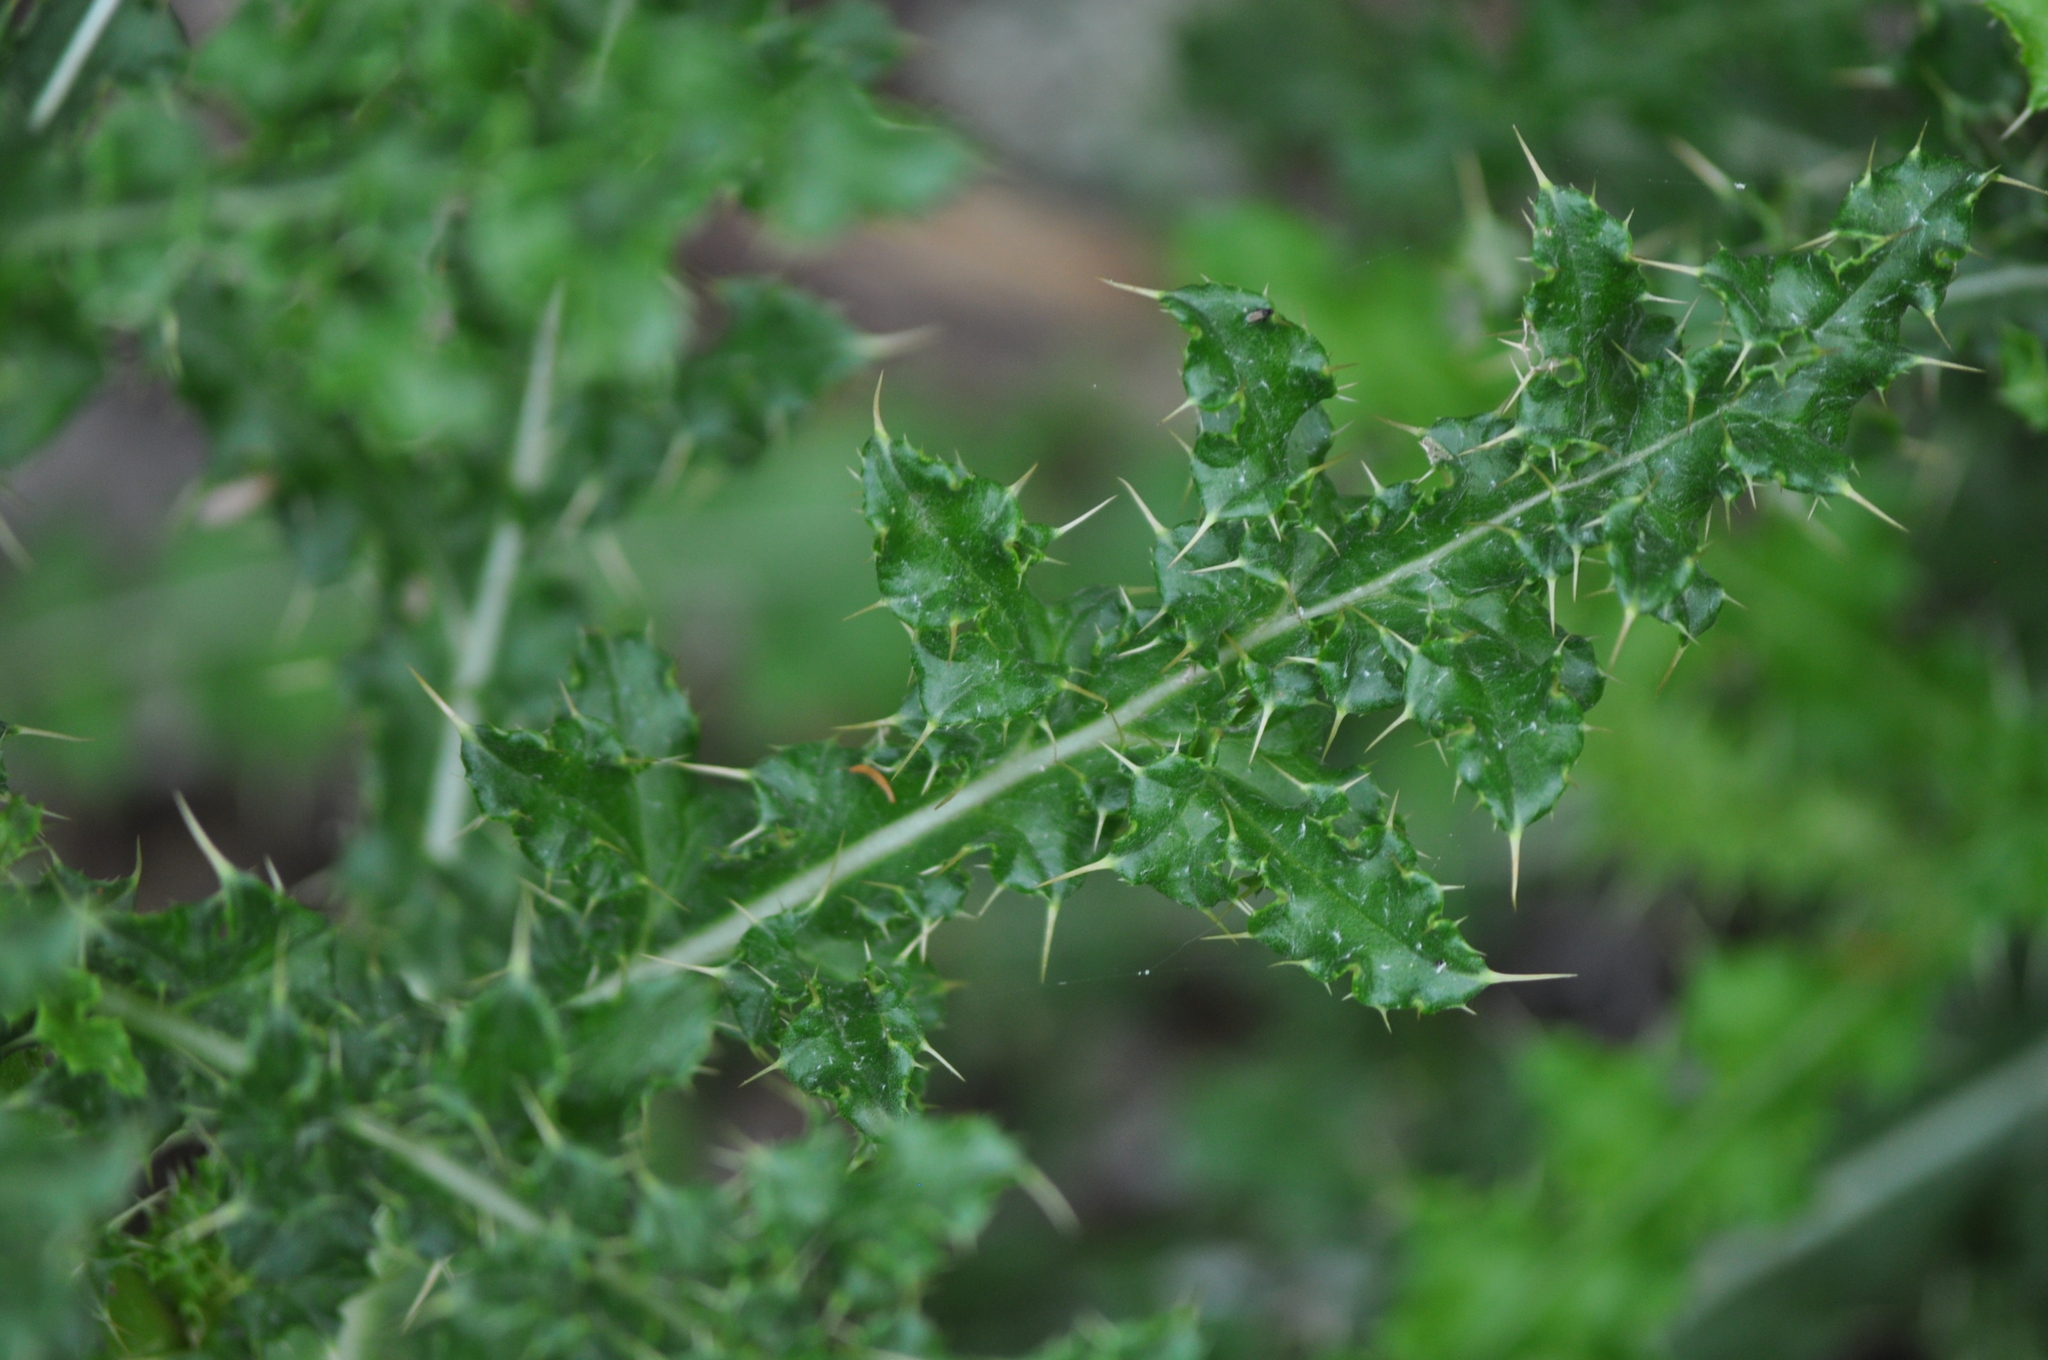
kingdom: Plantae
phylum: Tracheophyta
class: Magnoliopsida
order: Asterales
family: Asteraceae
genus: Cirsium
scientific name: Cirsium arvense
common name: Creeping thistle
